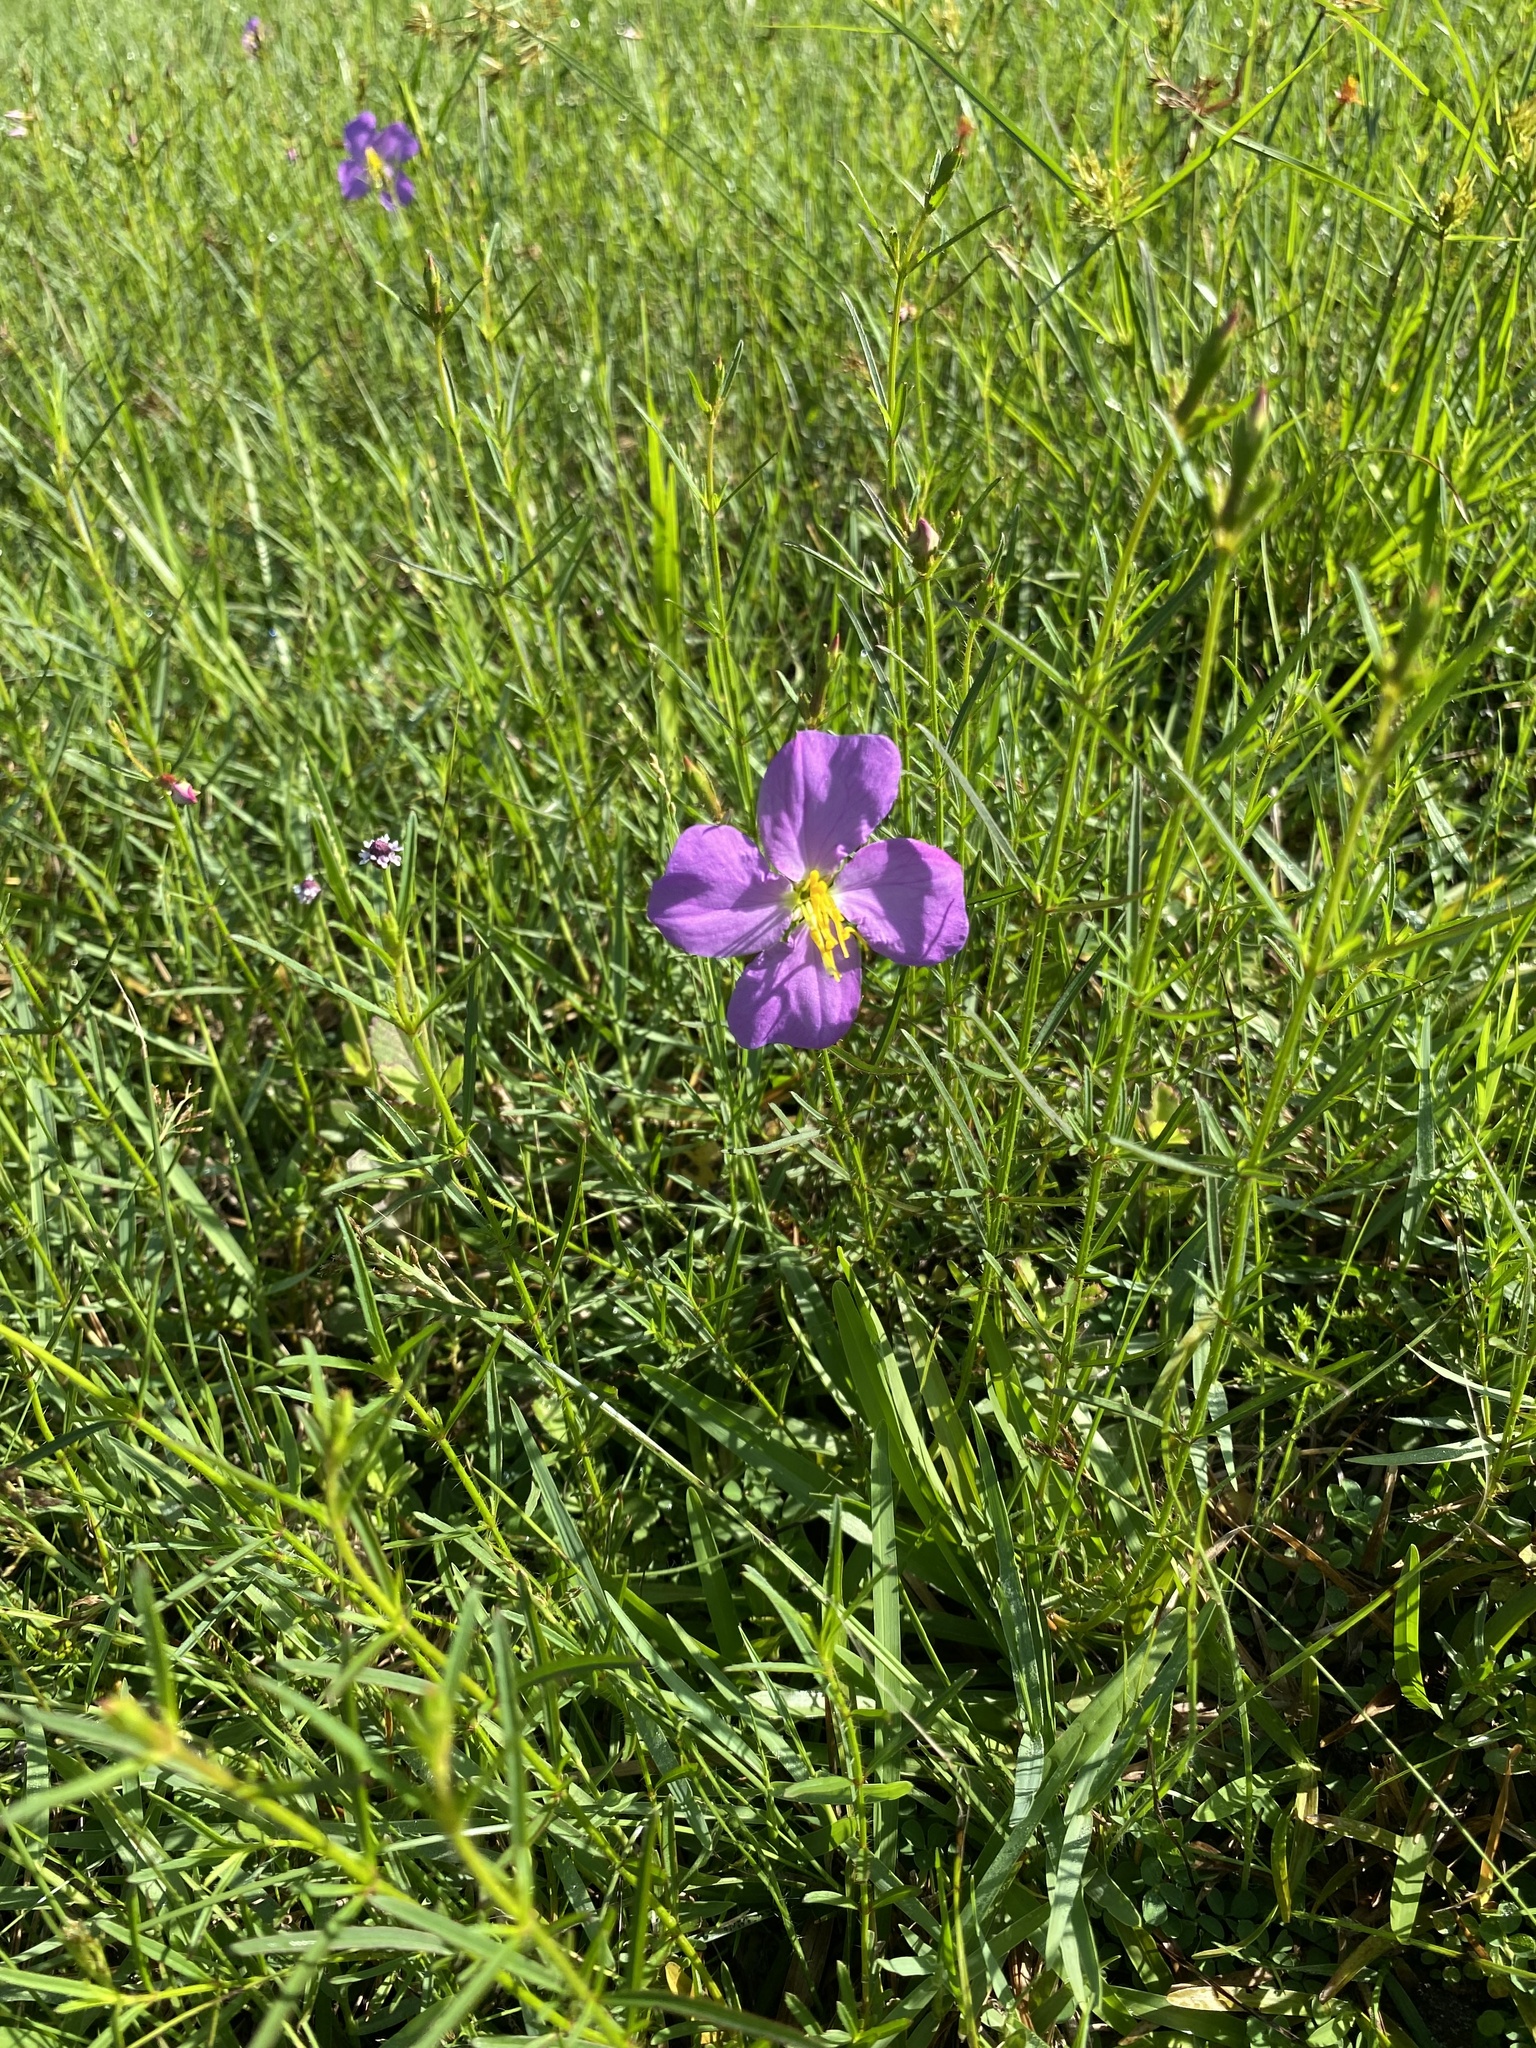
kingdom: Plantae
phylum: Tracheophyta
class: Magnoliopsida
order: Myrtales
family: Melastomataceae
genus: Rhexia
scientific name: Rhexia cubensis
